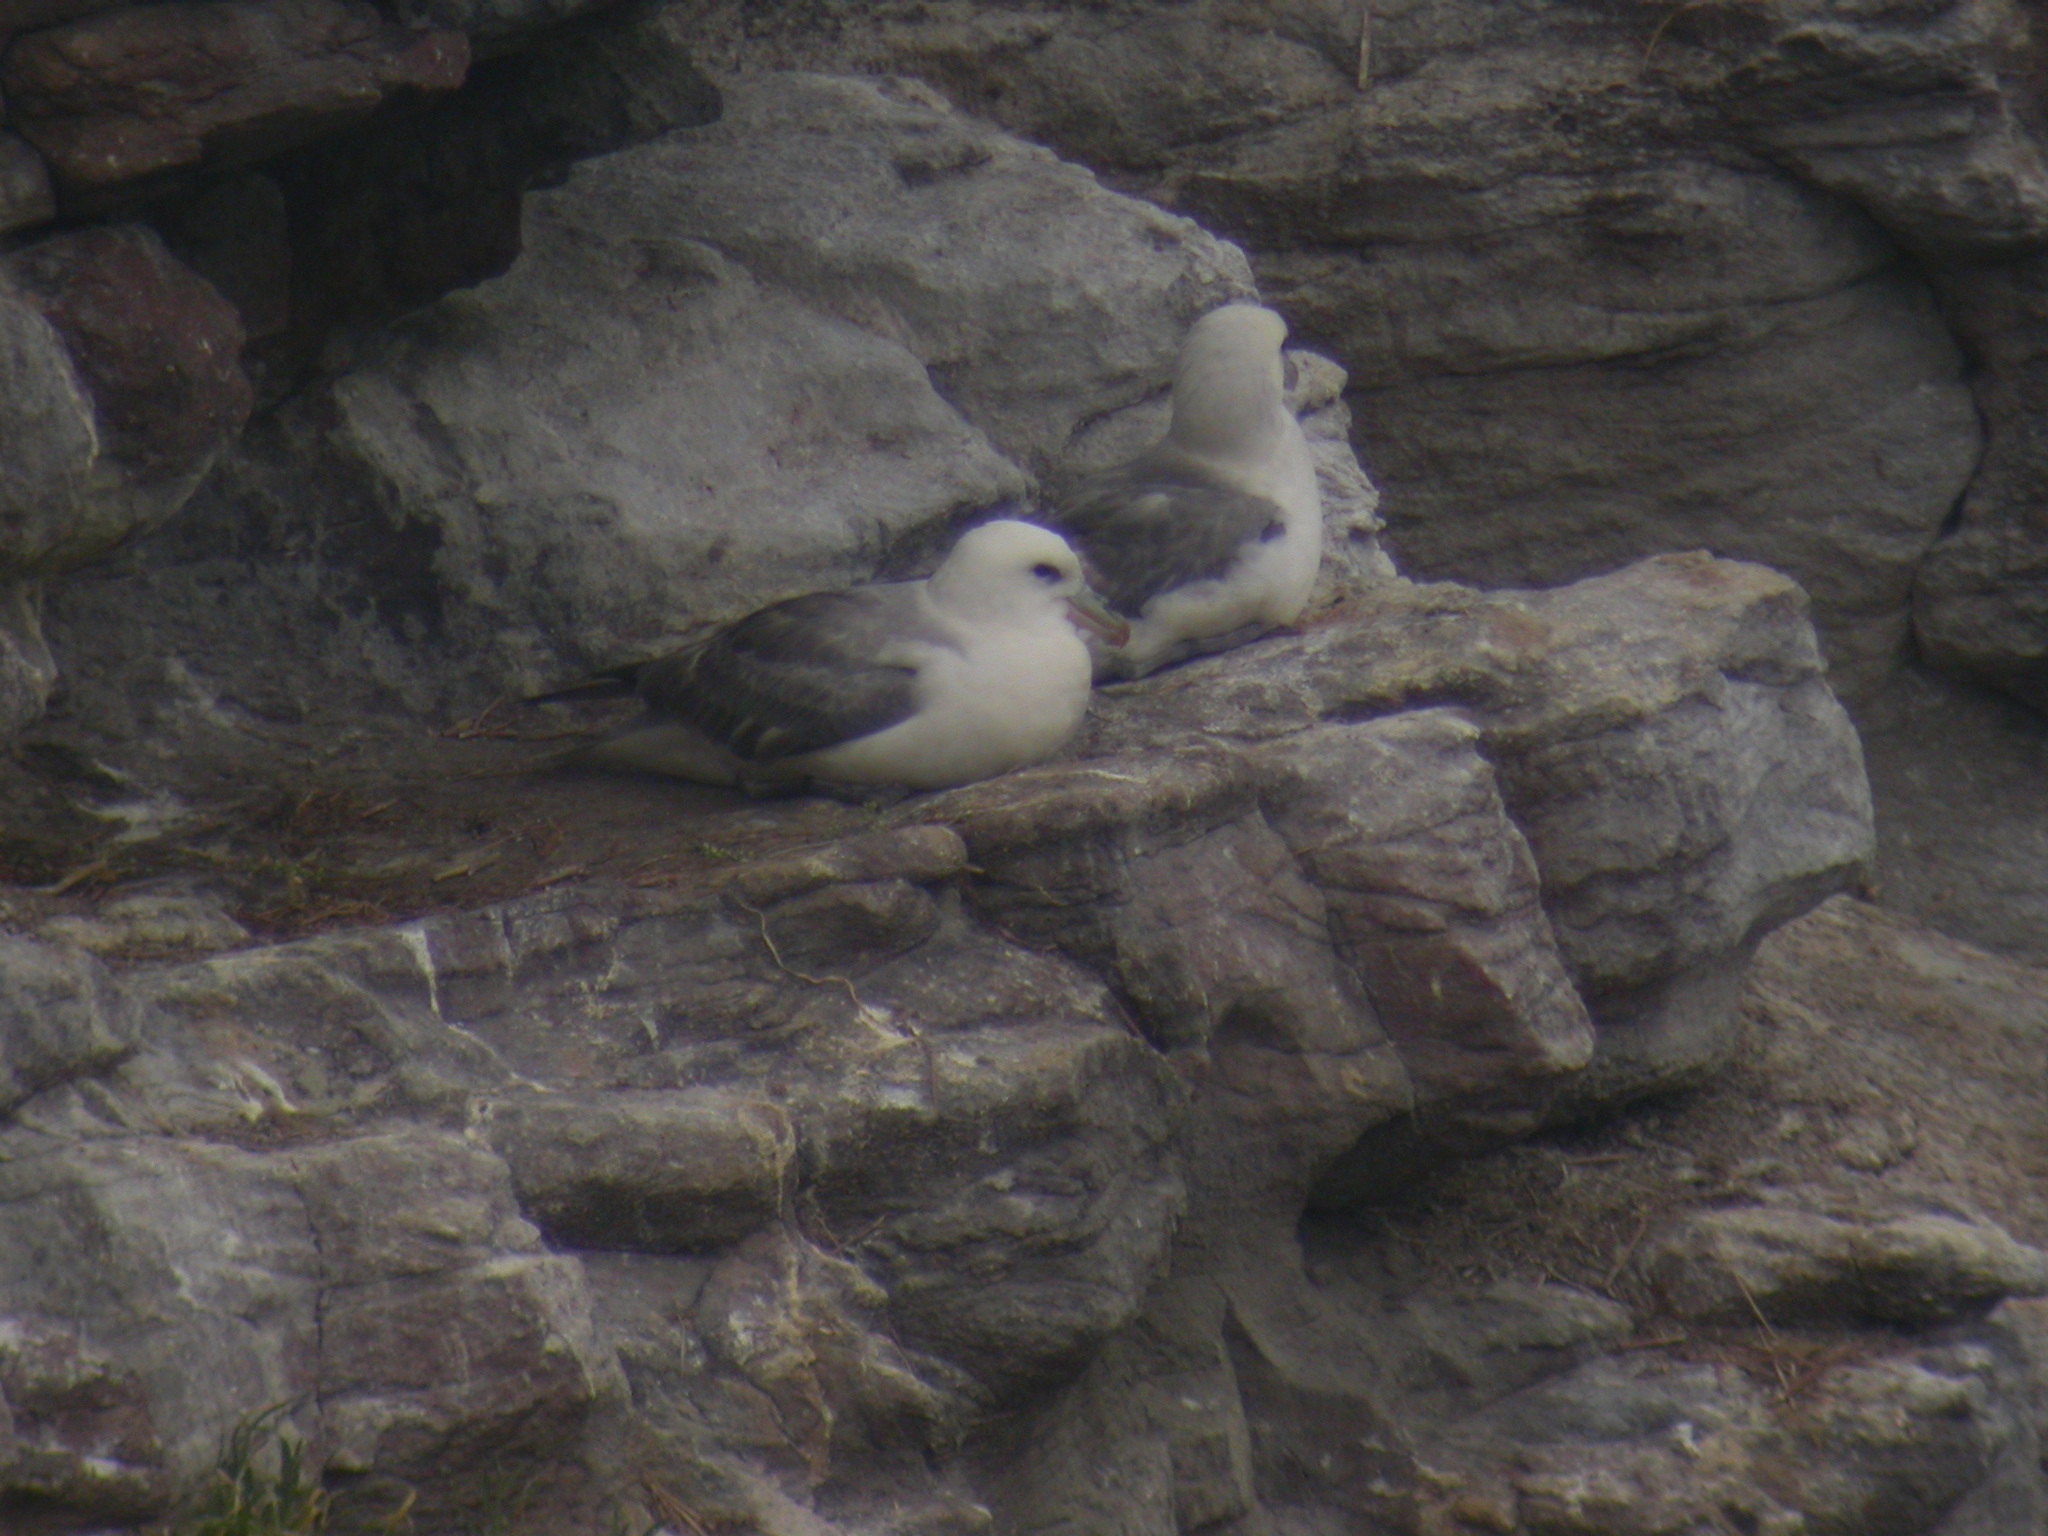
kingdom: Animalia
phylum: Chordata
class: Aves
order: Procellariiformes
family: Procellariidae
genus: Fulmarus
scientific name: Fulmarus glacialis
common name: Northern fulmar
